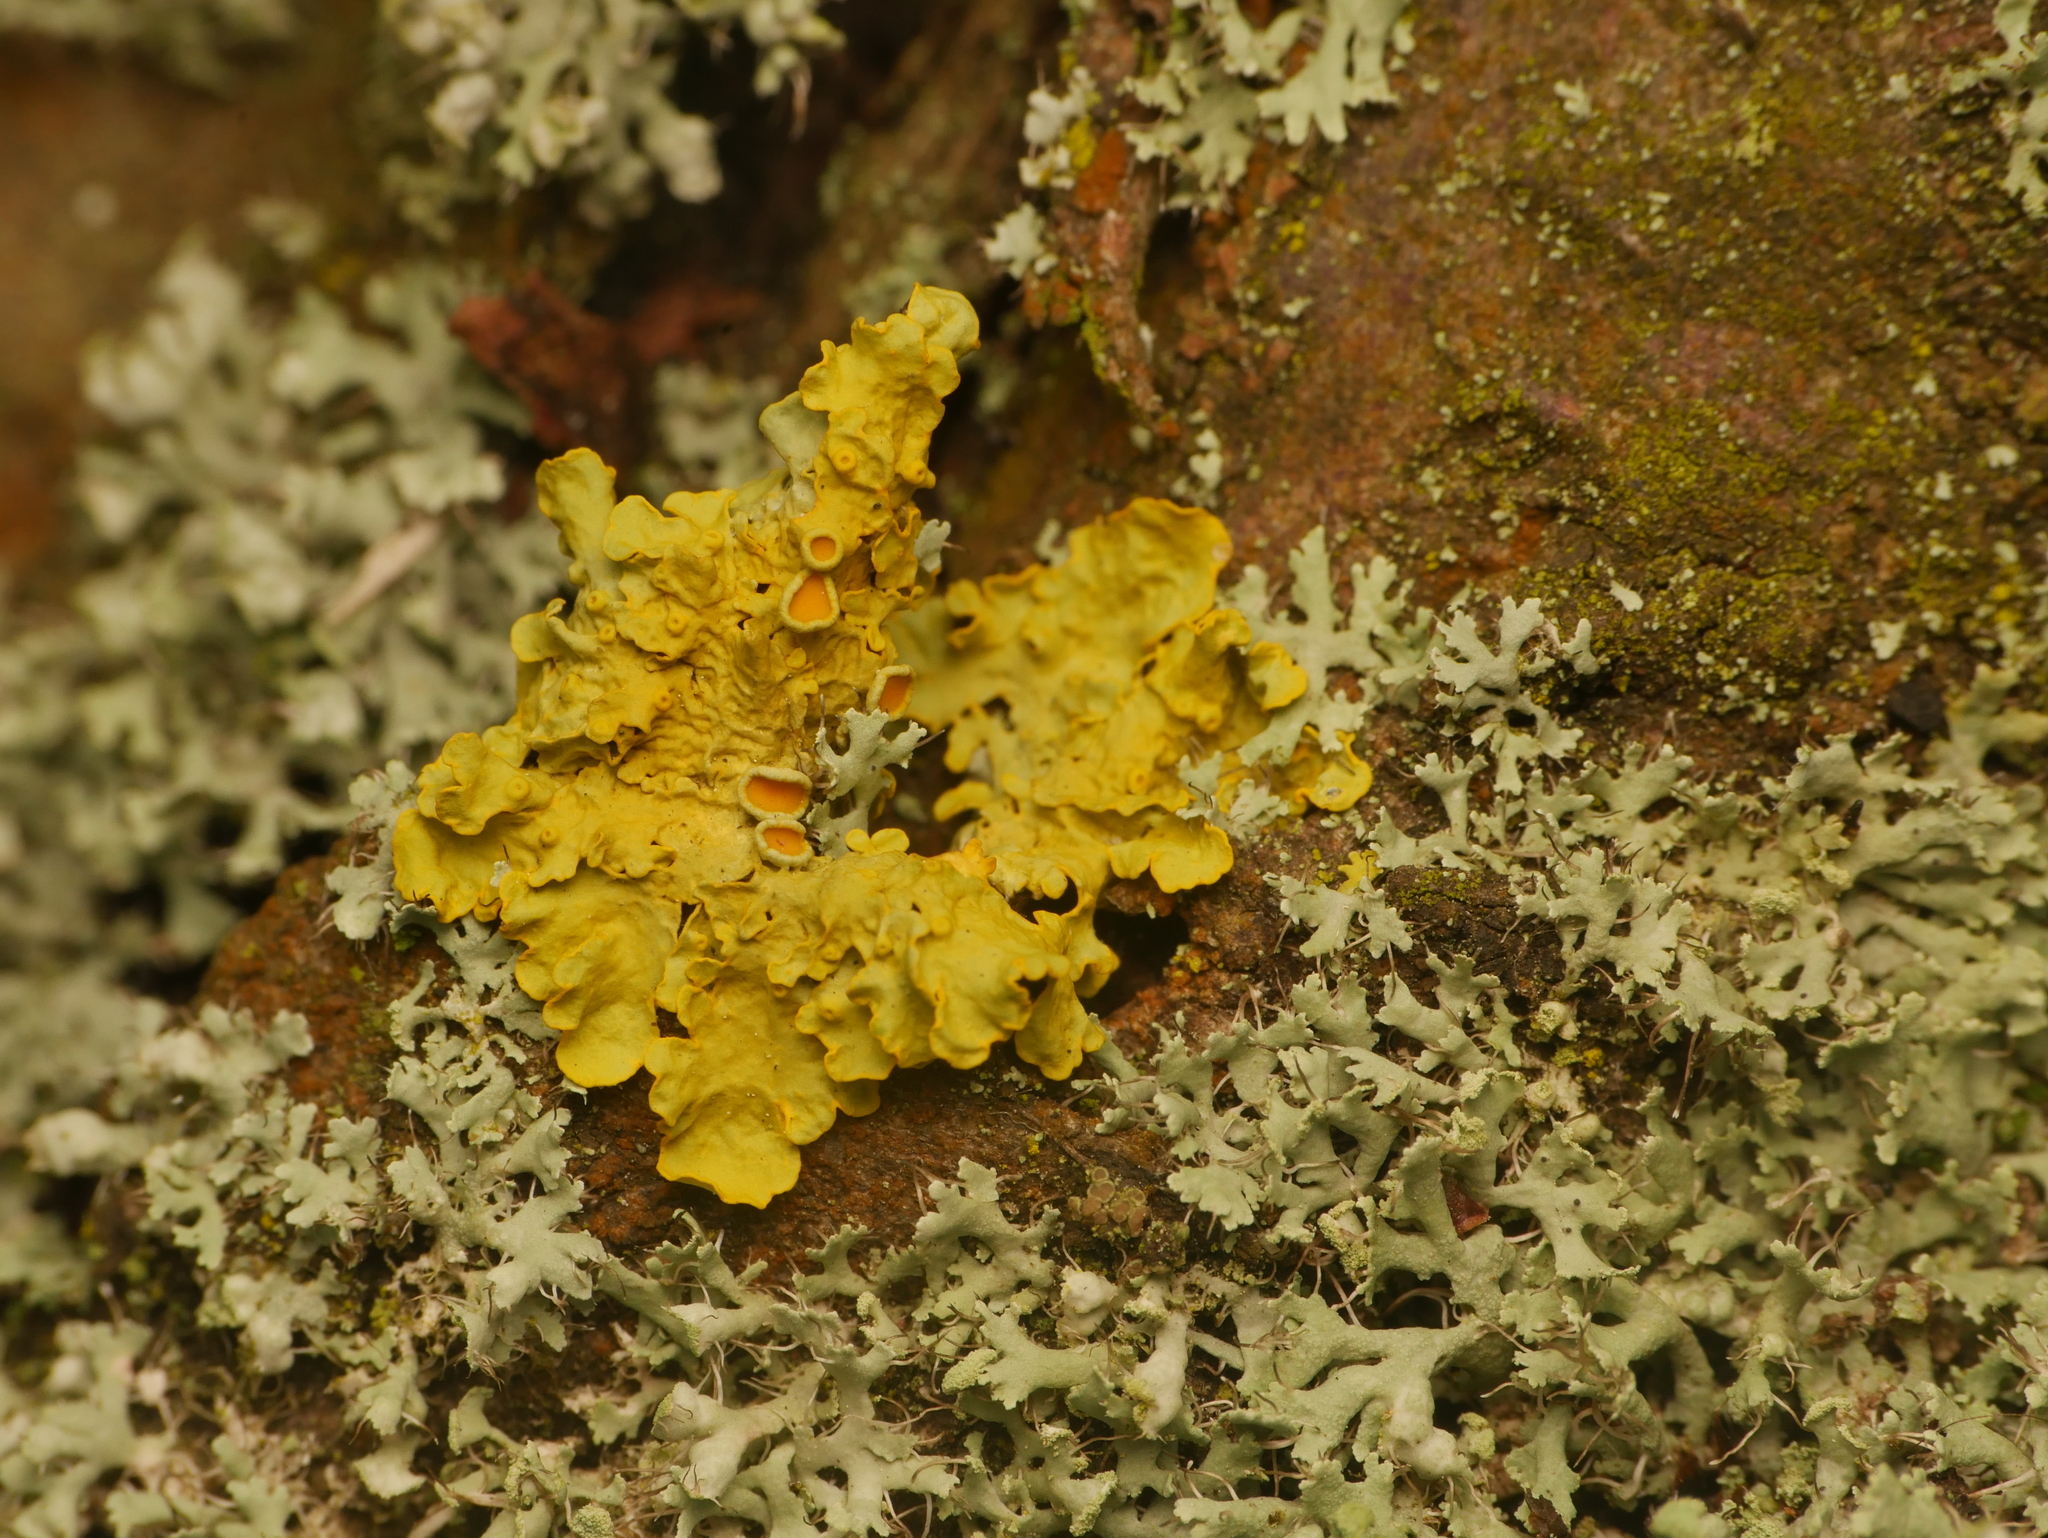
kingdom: Fungi
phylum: Ascomycota
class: Lecanoromycetes
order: Teloschistales
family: Teloschistaceae
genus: Xanthoria
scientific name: Xanthoria parietina
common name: Common orange lichen
